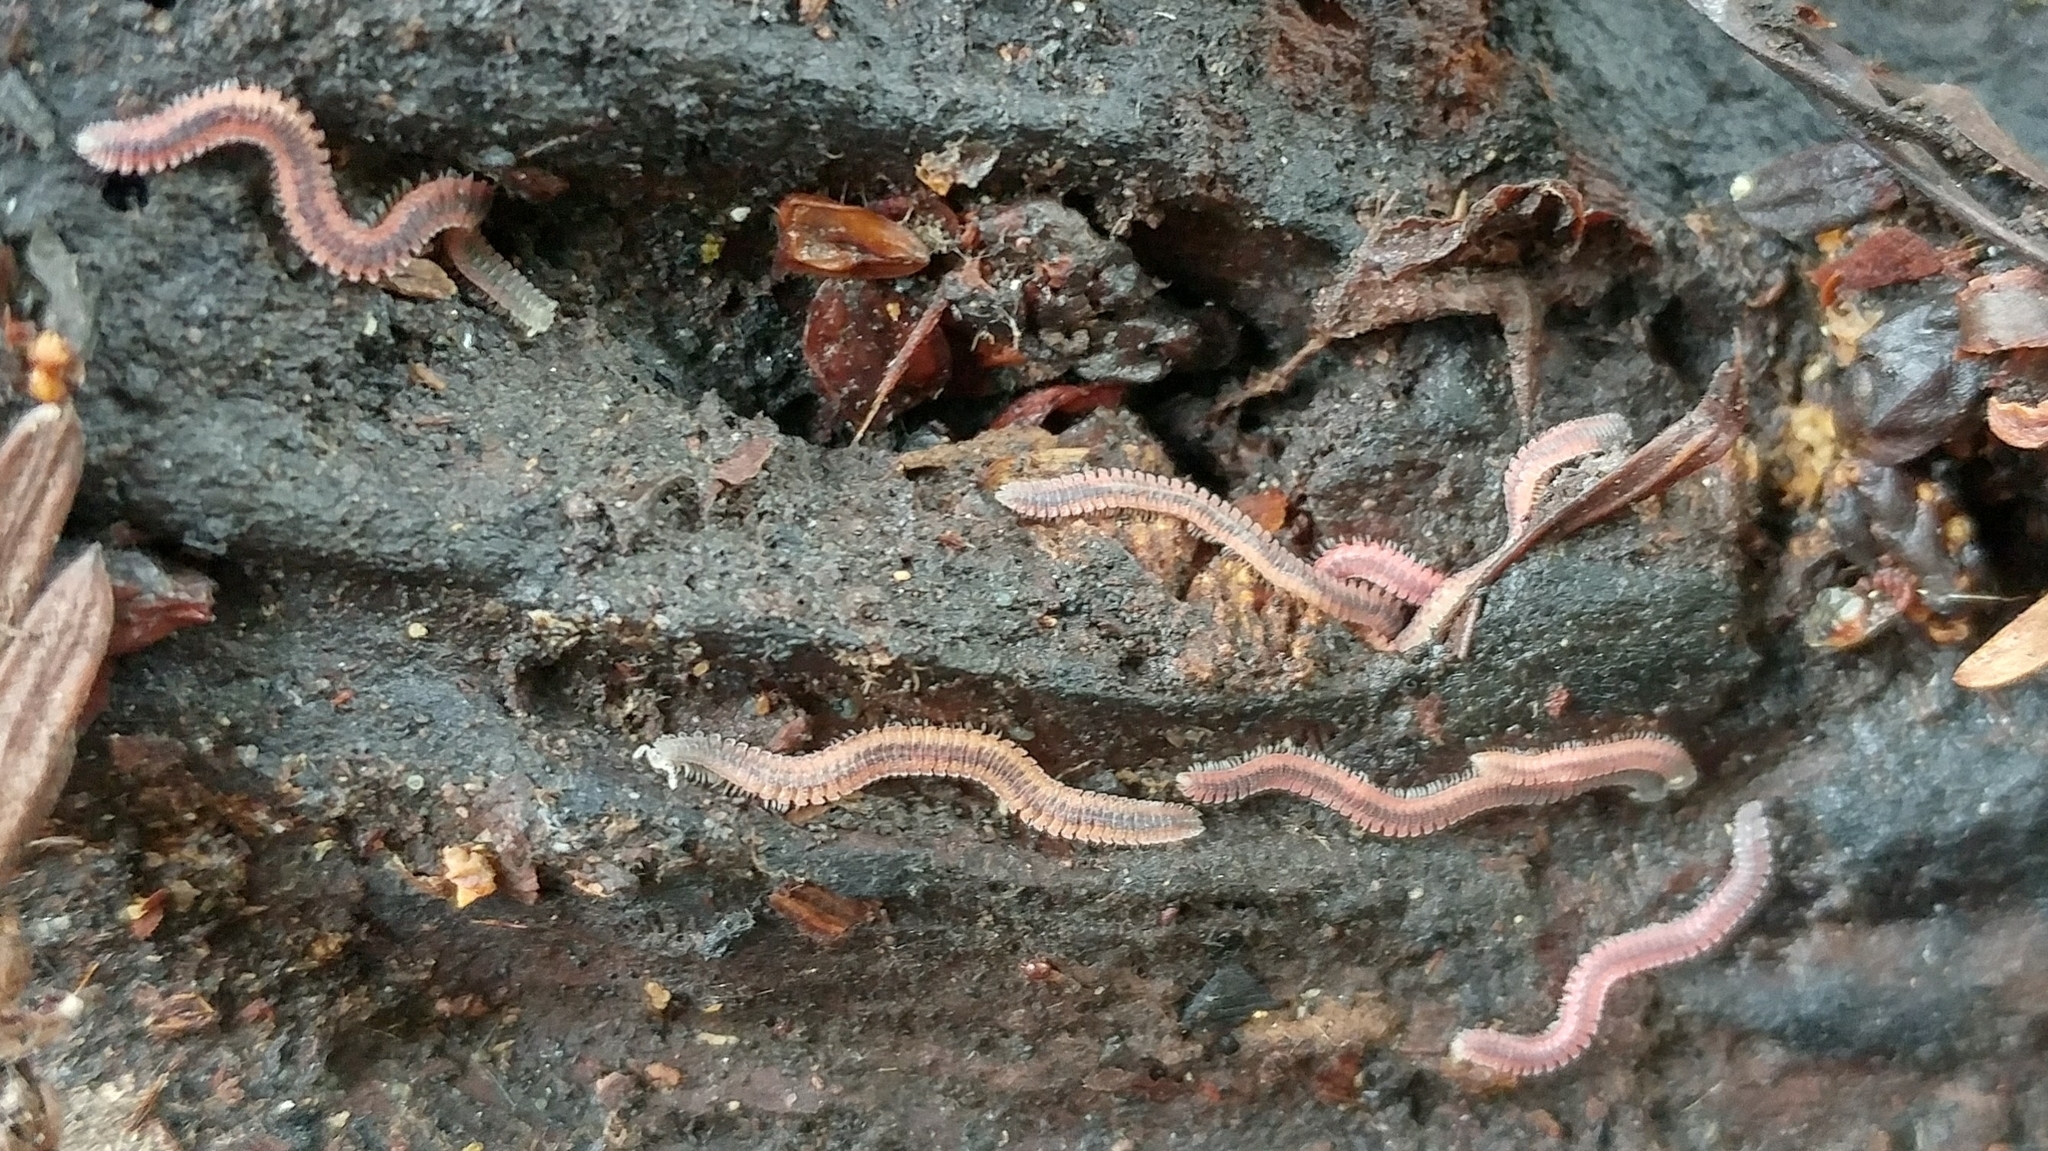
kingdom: Animalia
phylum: Arthropoda
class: Diplopoda
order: Platydesmida
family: Andrognathidae
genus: Gosodesmus
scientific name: Gosodesmus claremontus
